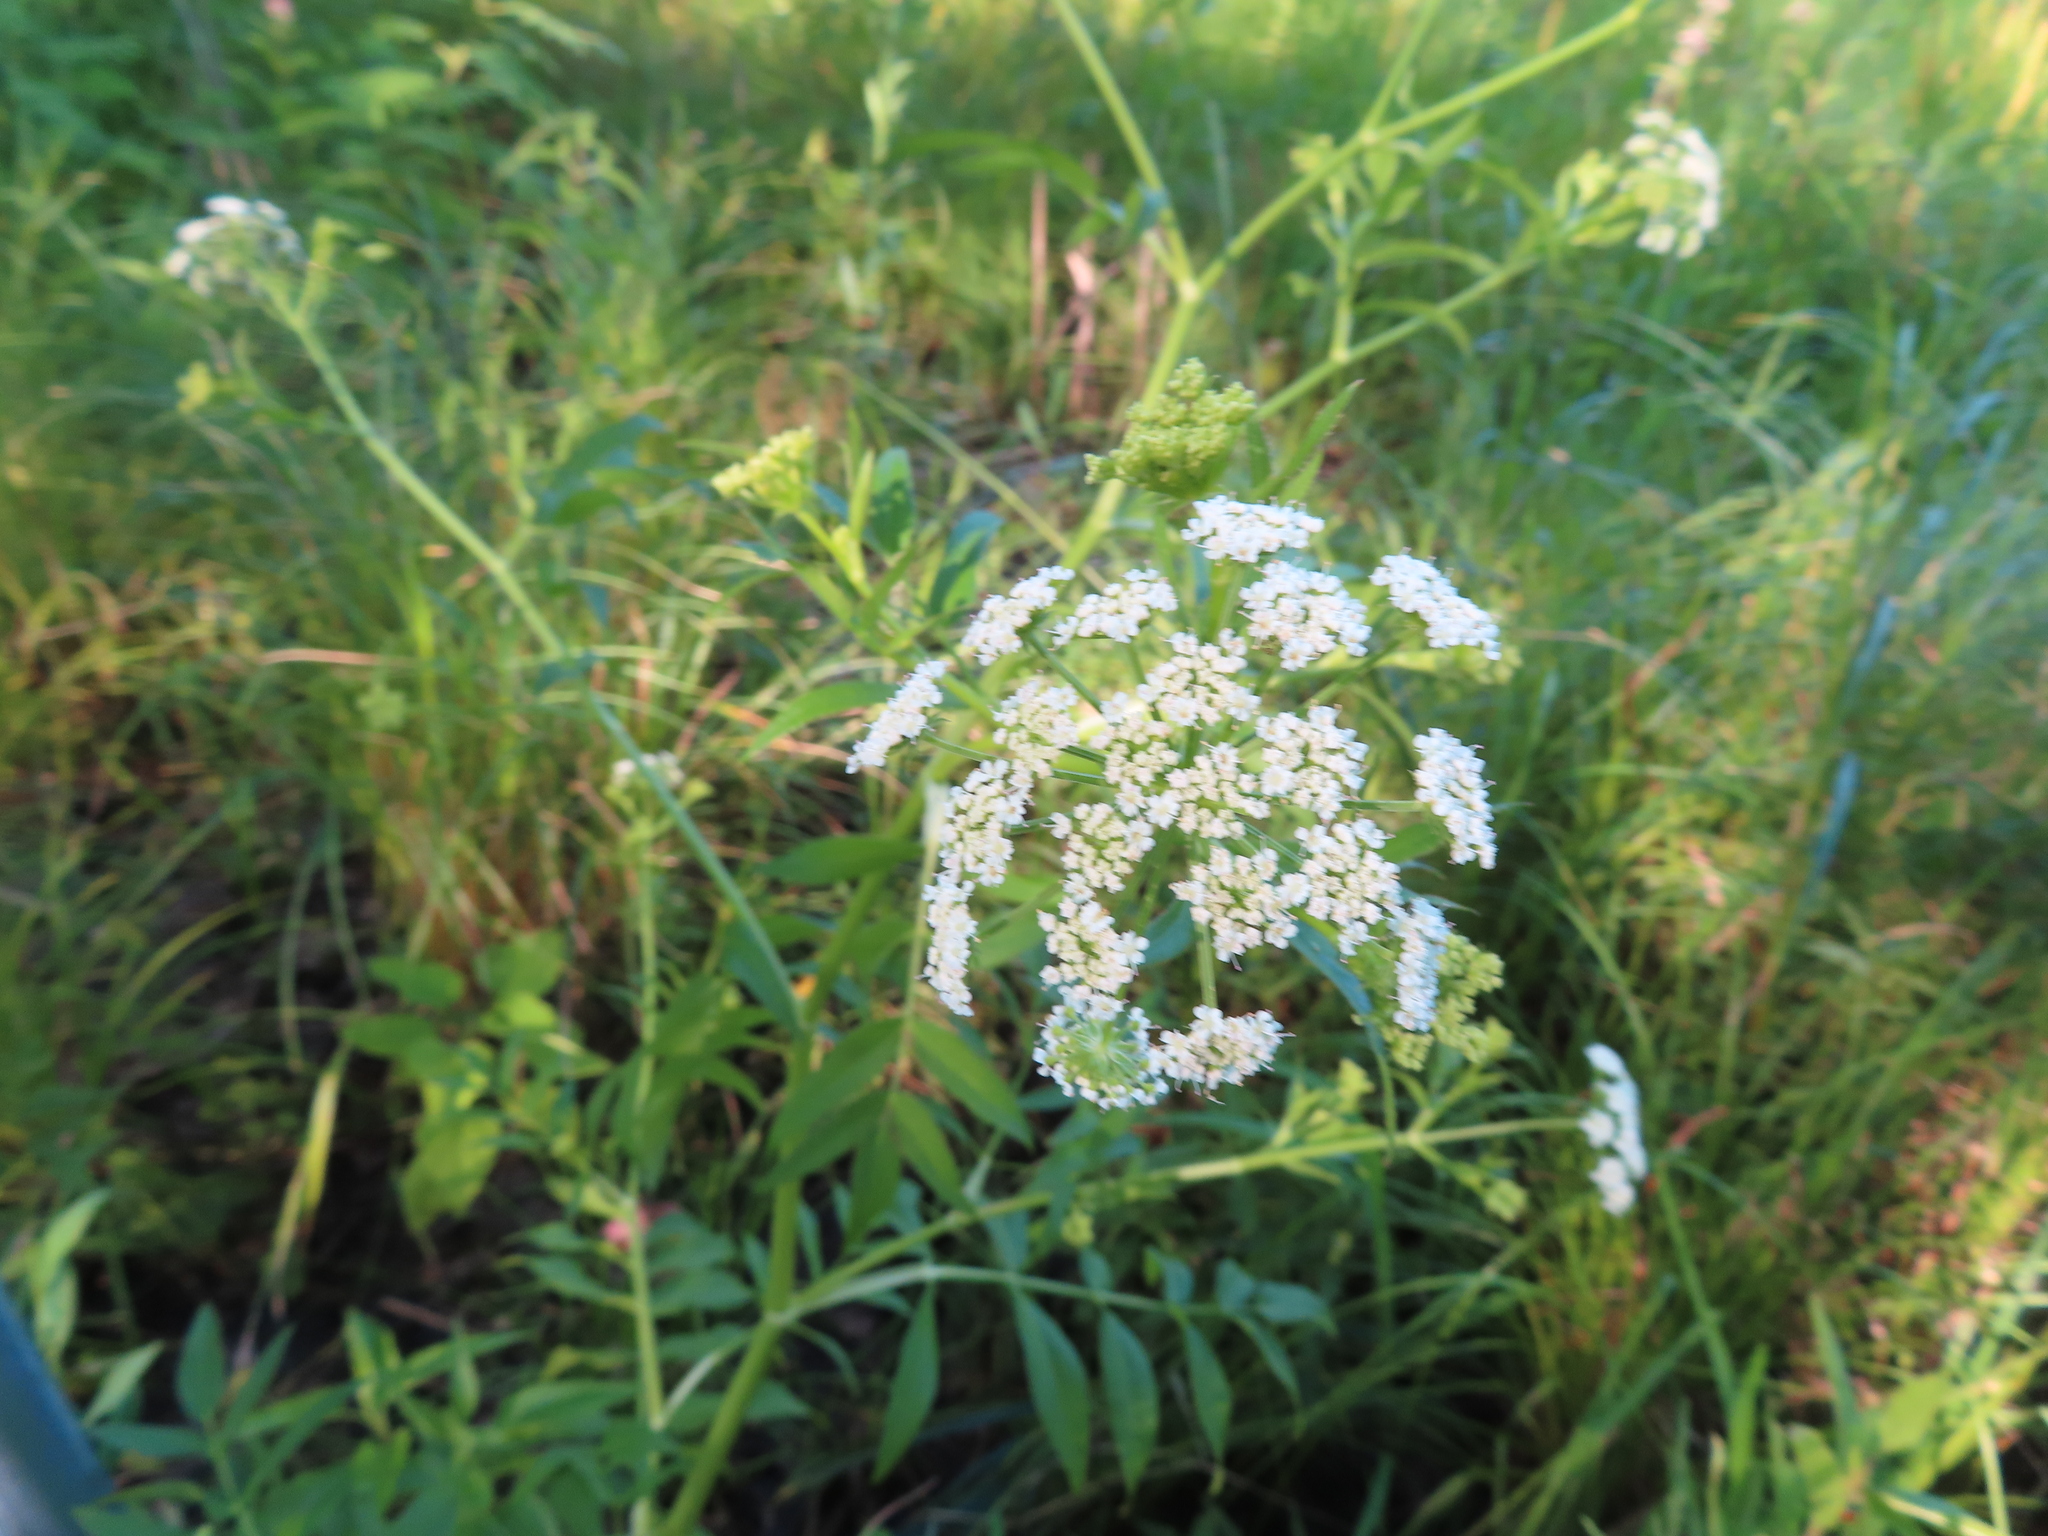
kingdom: Plantae
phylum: Tracheophyta
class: Magnoliopsida
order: Apiales
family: Apiaceae
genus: Sium
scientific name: Sium suave
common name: Hemlock water-parsnip
